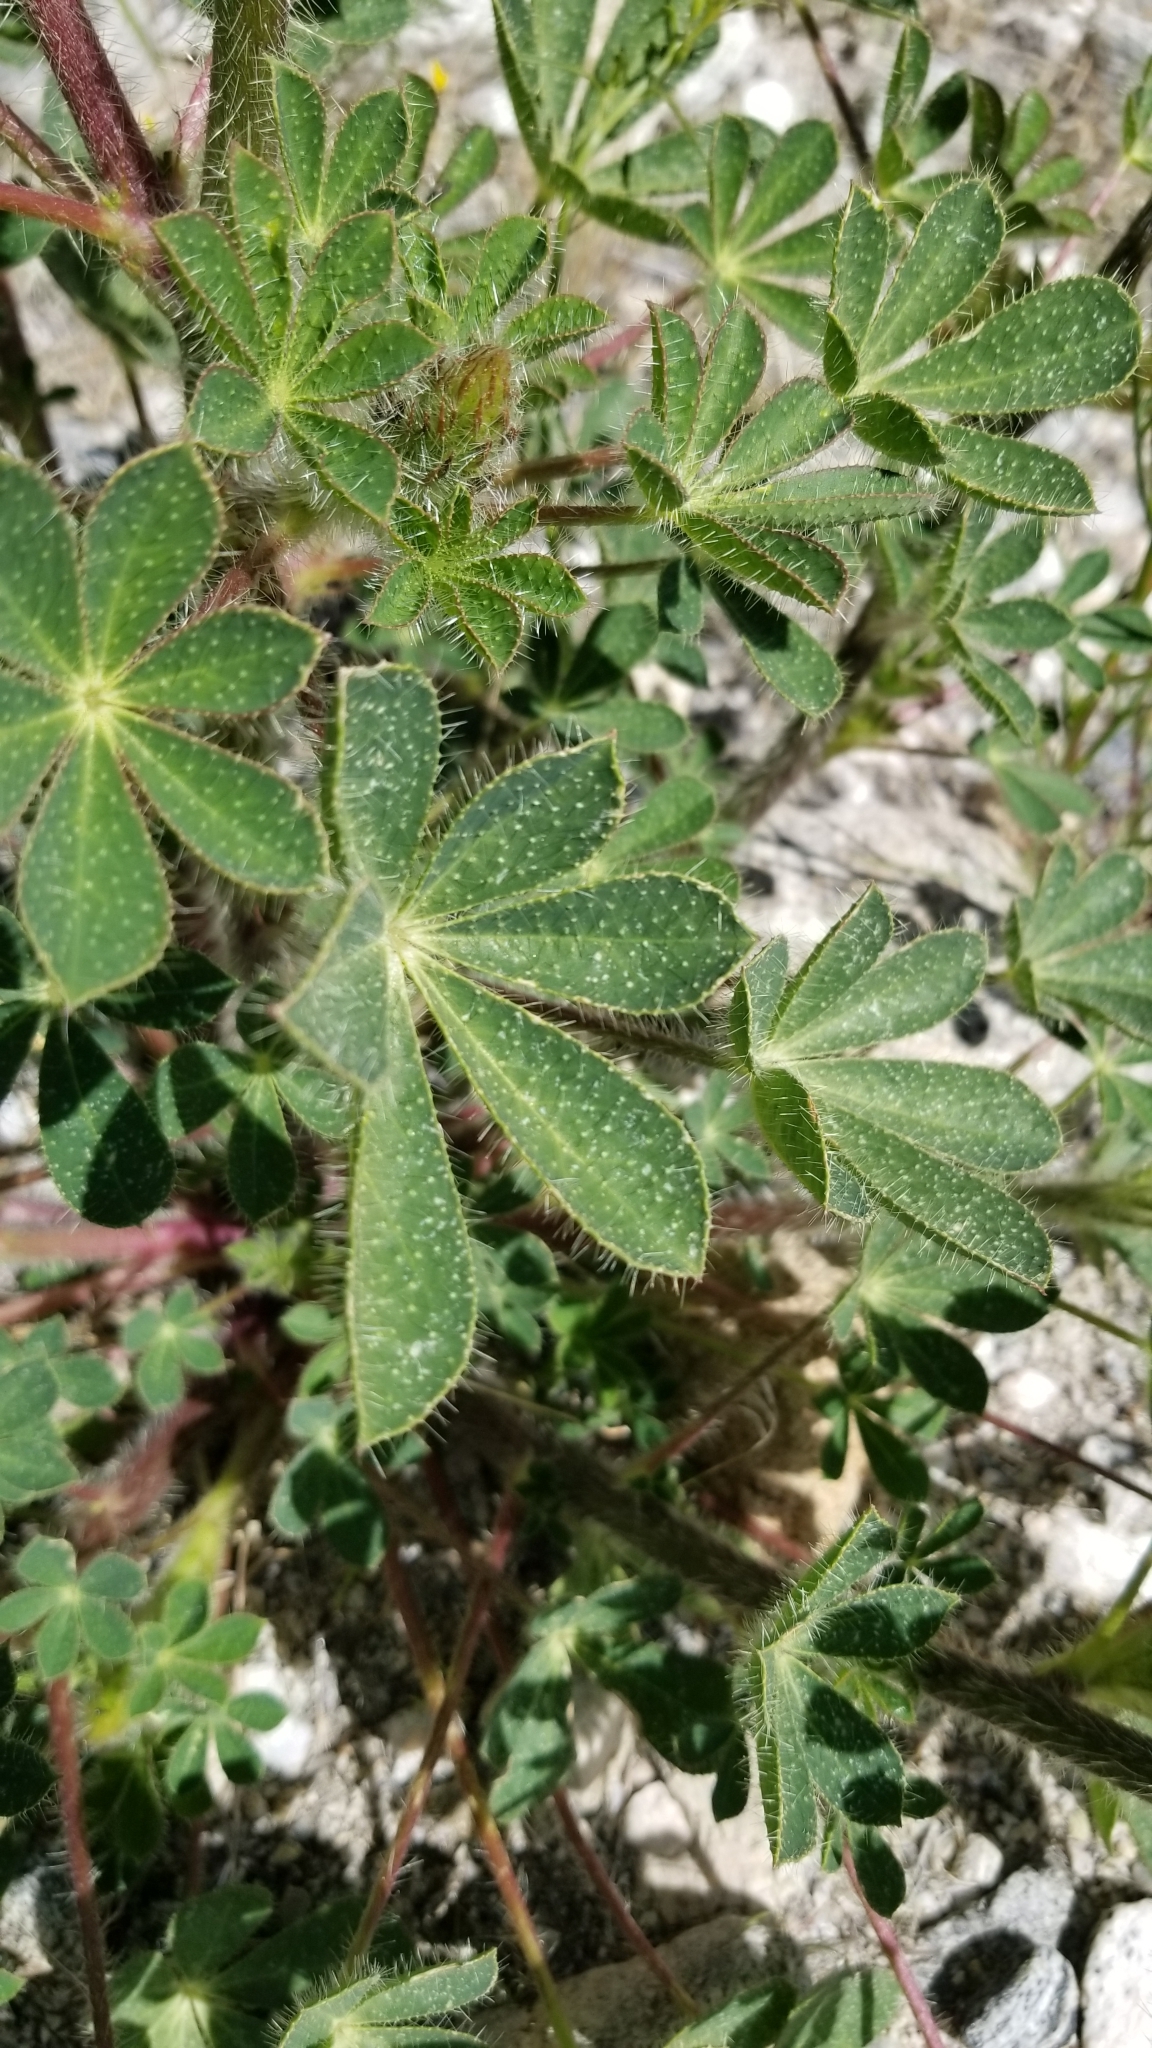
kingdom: Plantae
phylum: Tracheophyta
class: Magnoliopsida
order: Fabales
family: Fabaceae
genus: Lupinus
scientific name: Lupinus hirsutissimus
